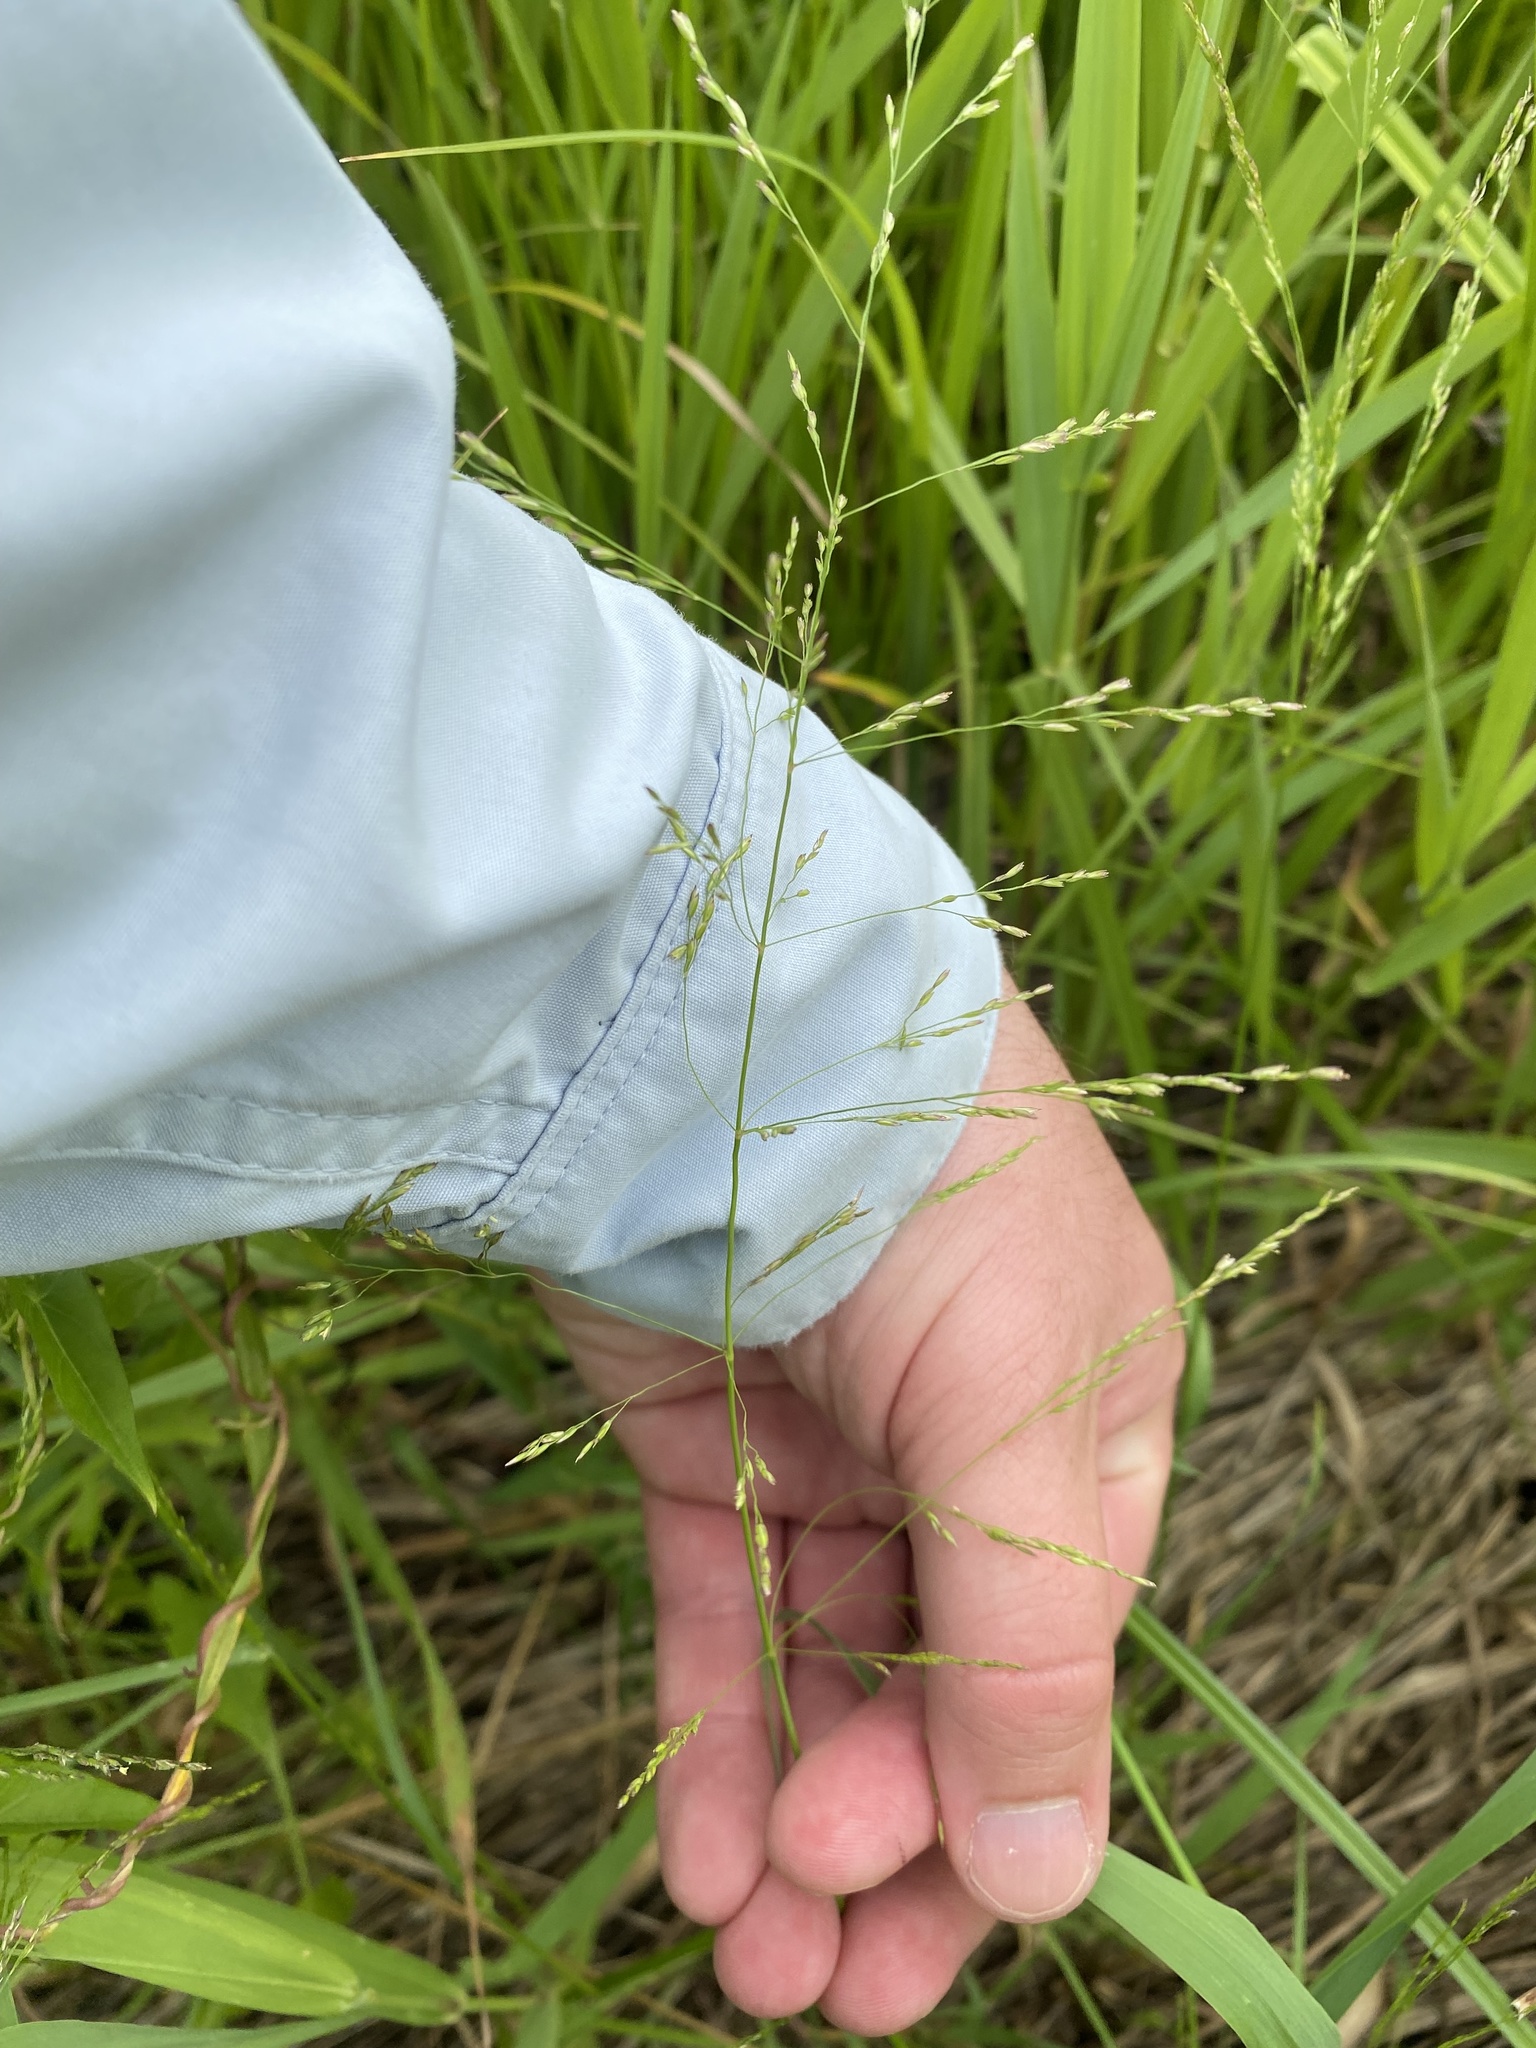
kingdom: Plantae
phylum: Tracheophyta
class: Liliopsida
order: Poales
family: Poaceae
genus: Leersia
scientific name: Leersia oryzoides
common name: Cut-grass
